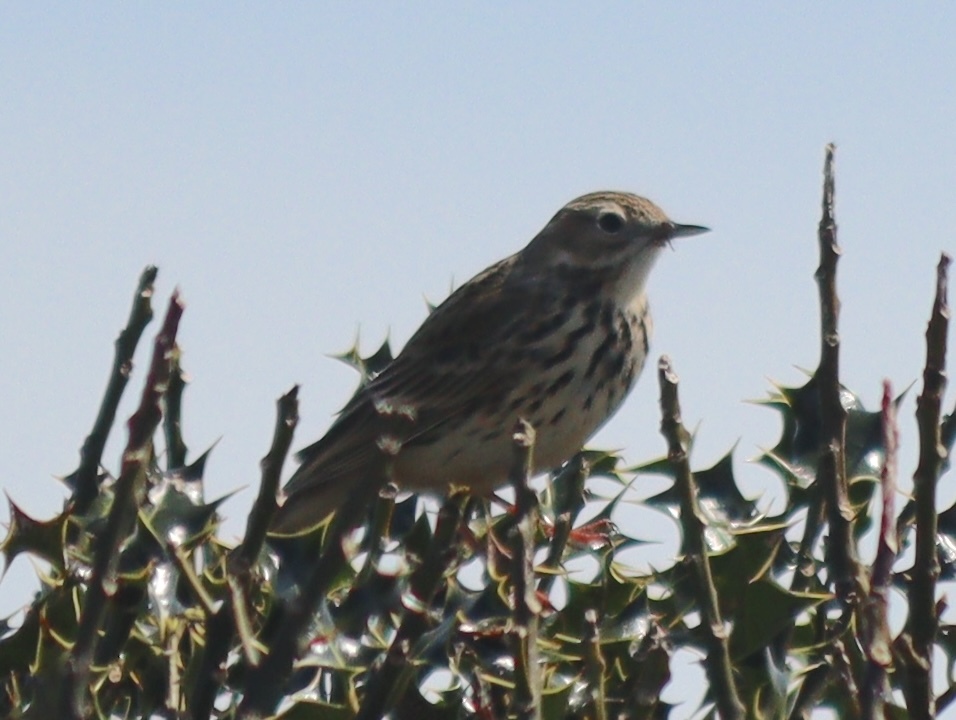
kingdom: Animalia
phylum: Chordata
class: Aves
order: Passeriformes
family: Motacillidae
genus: Anthus
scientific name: Anthus pratensis
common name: Meadow pipit
